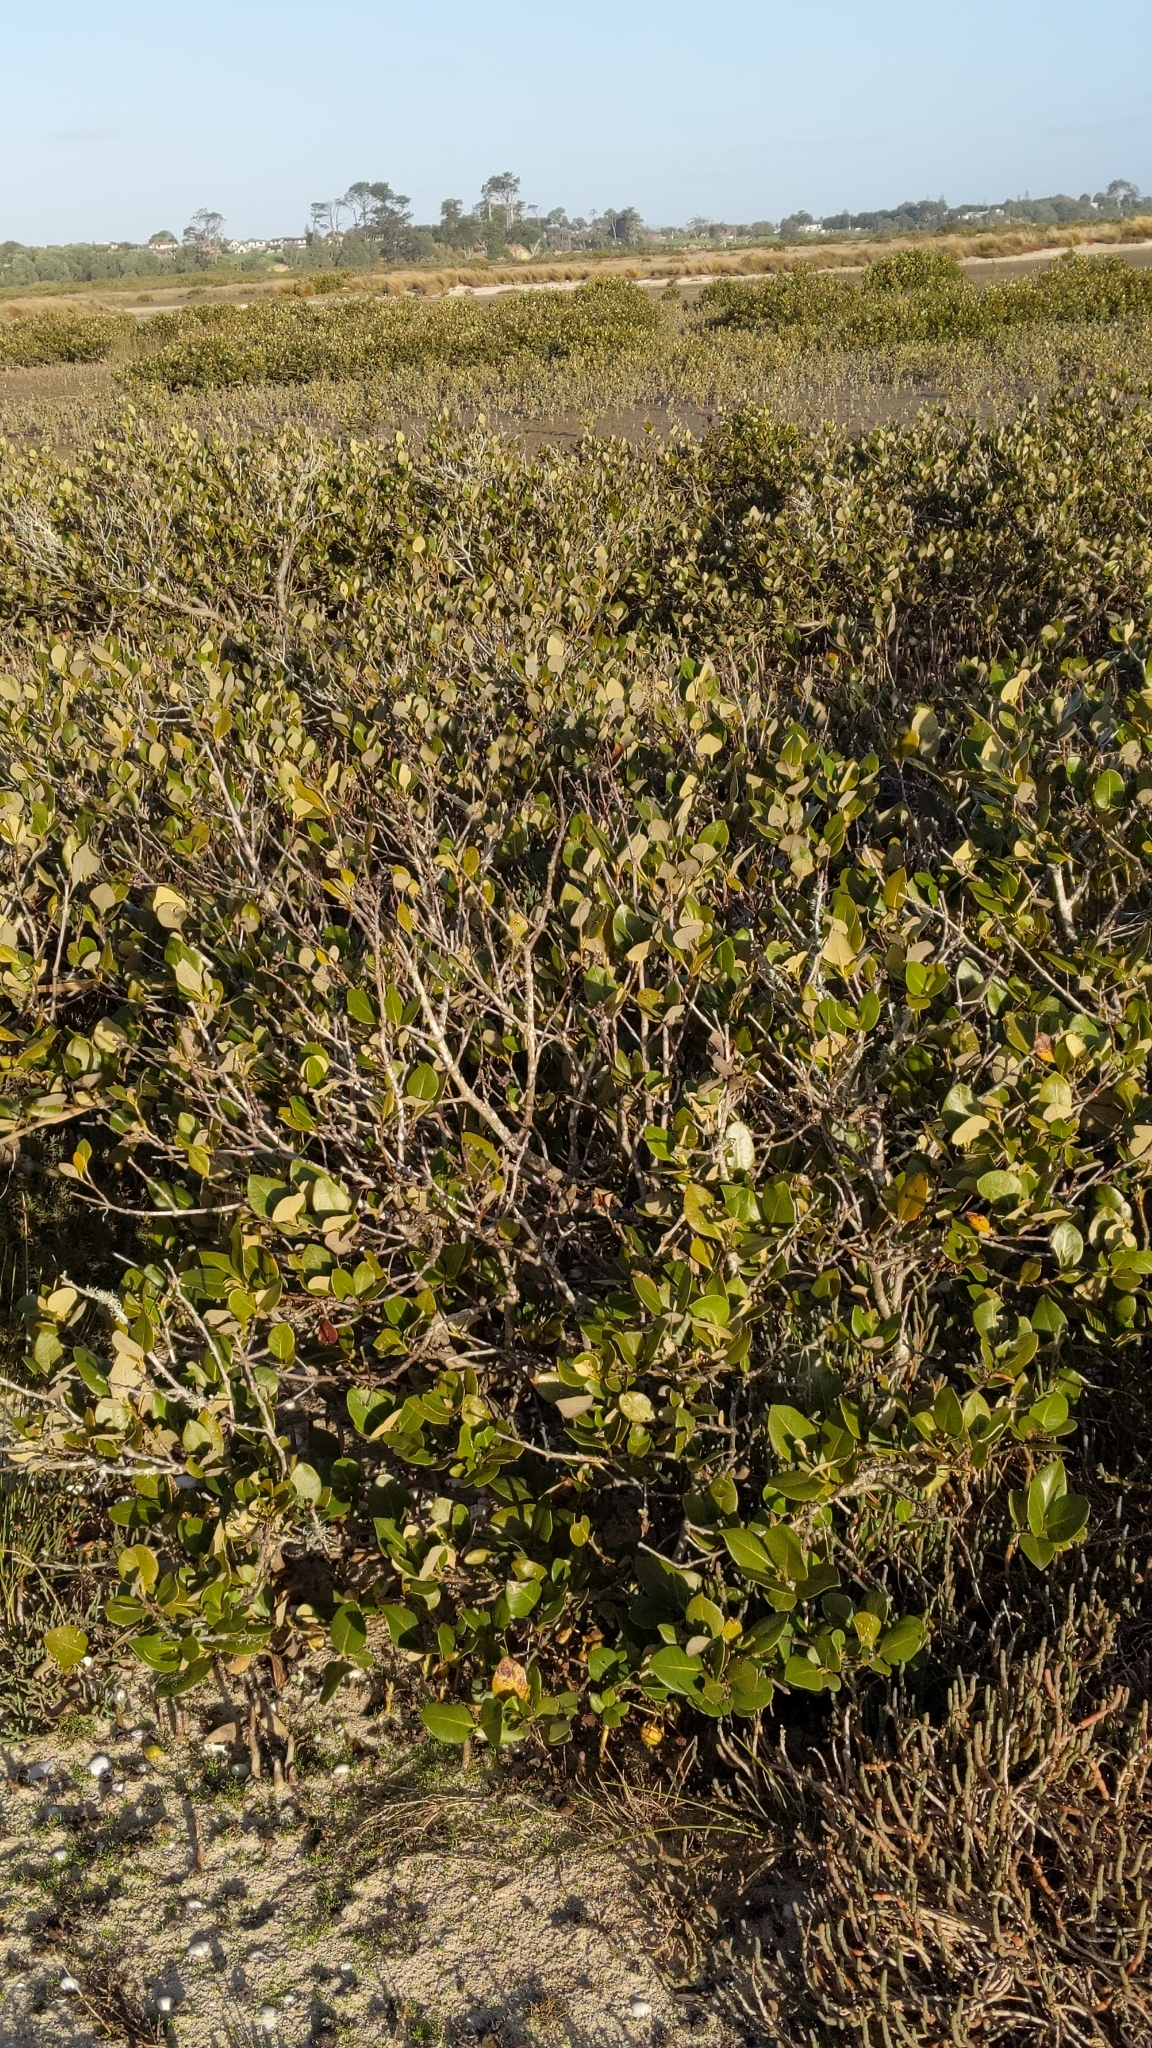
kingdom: Plantae
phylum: Tracheophyta
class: Magnoliopsida
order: Lamiales
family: Acanthaceae
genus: Avicennia
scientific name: Avicennia marina
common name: Gray mangrove
